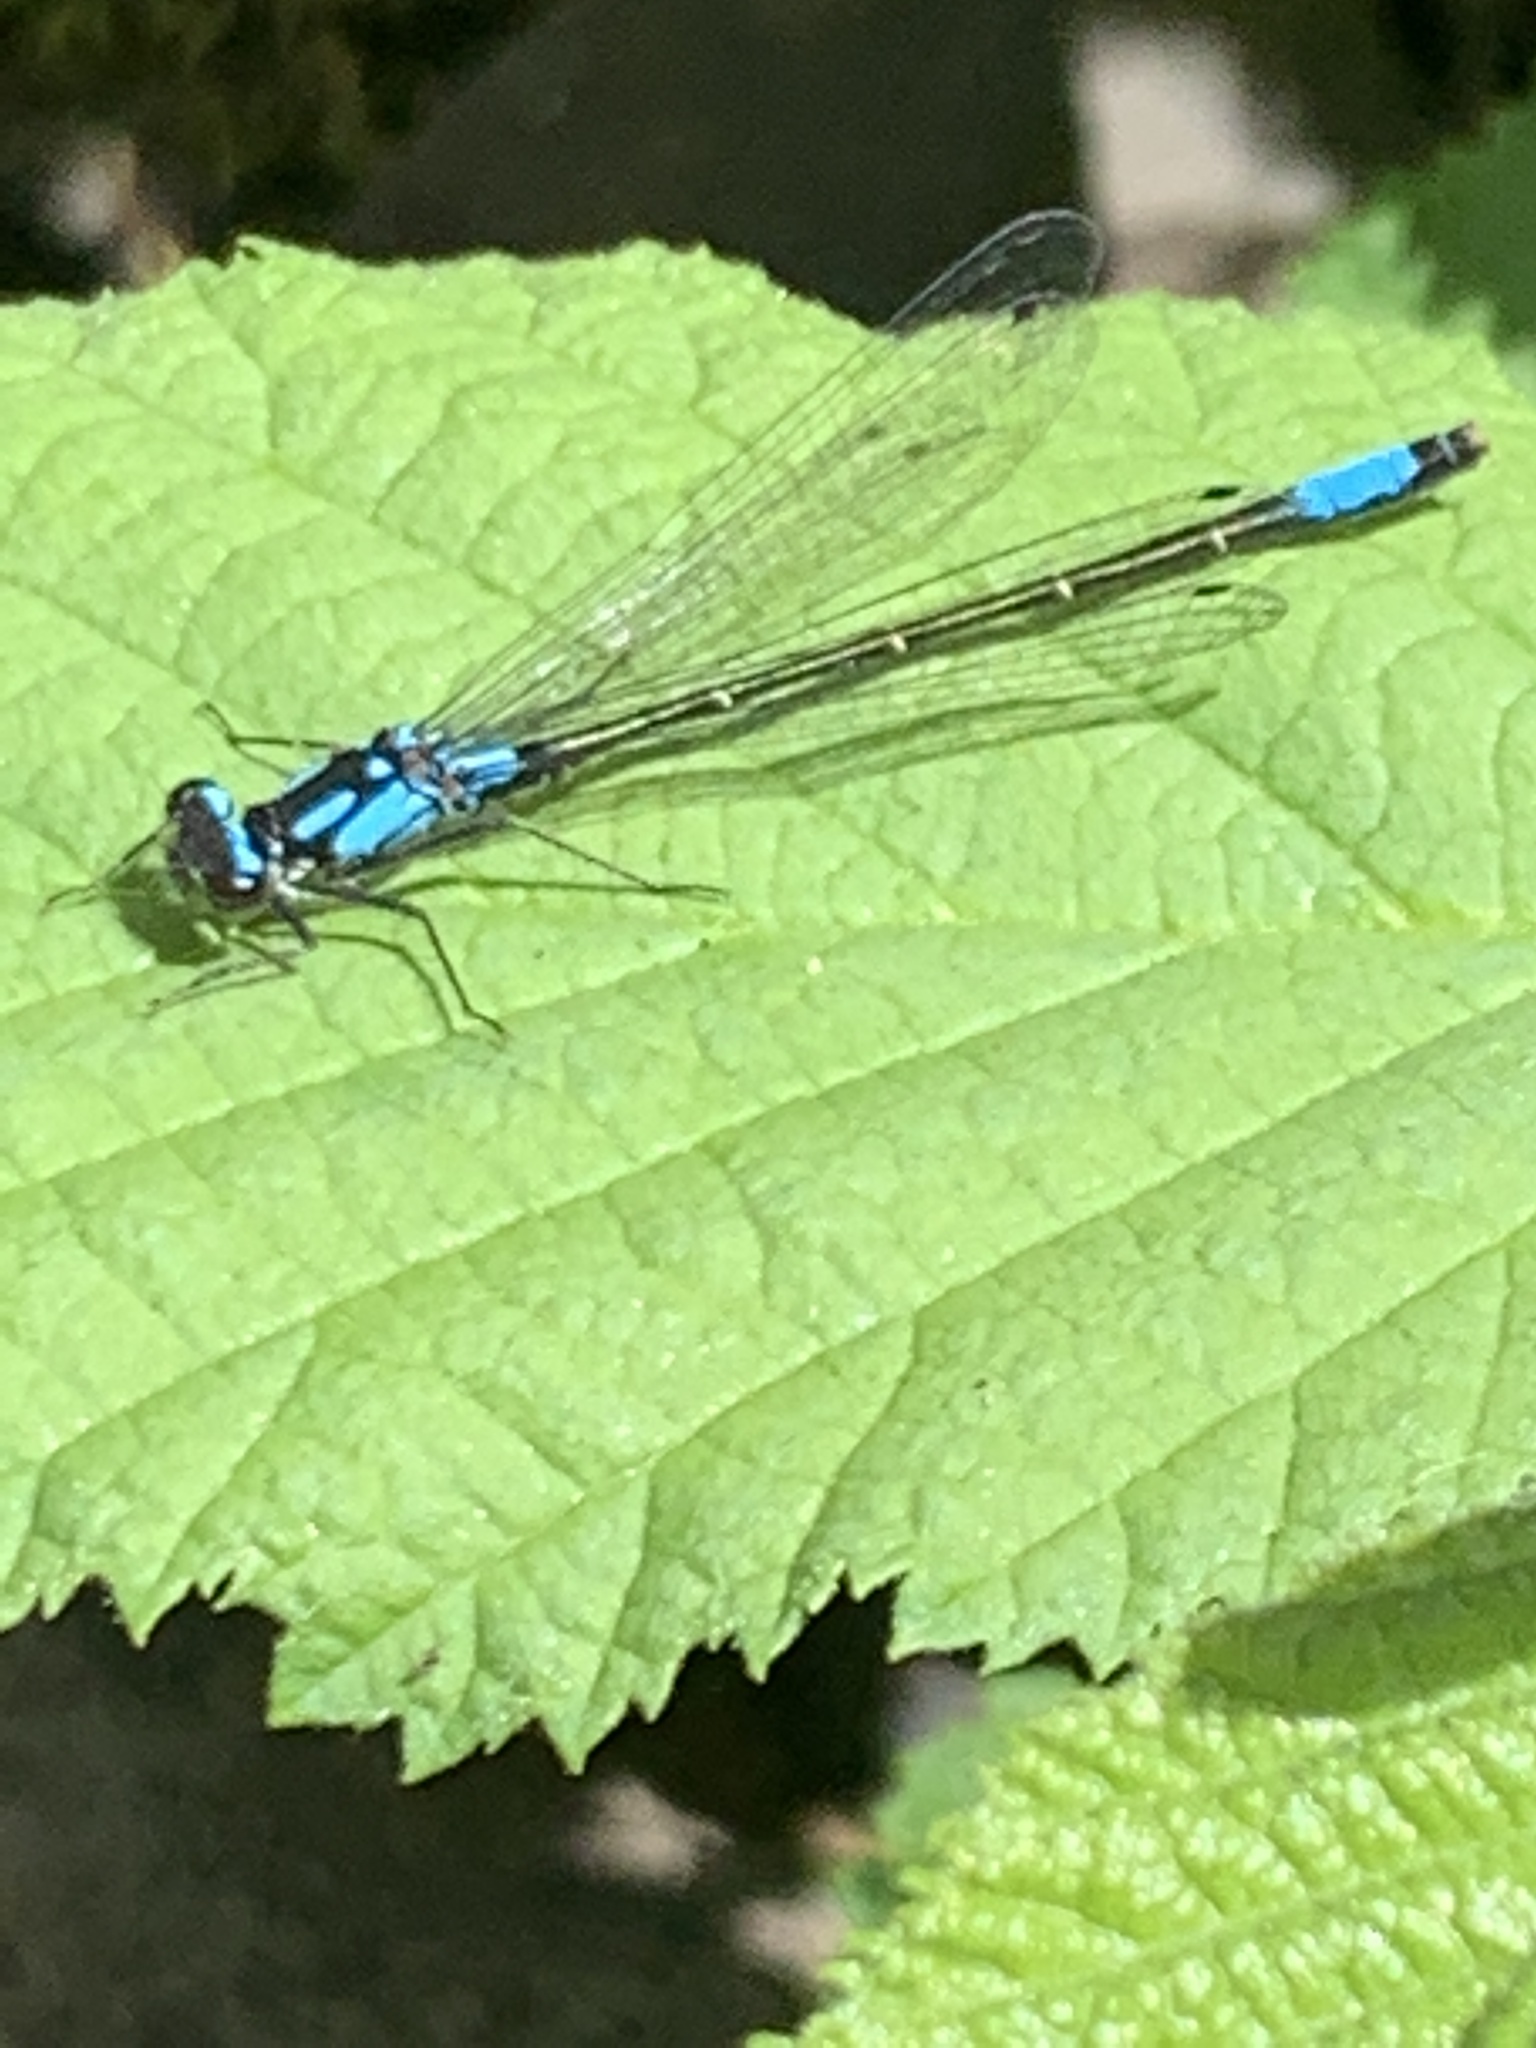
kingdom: Animalia
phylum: Arthropoda
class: Insecta
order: Odonata
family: Coenagrionidae
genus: Zoniagrion
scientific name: Zoniagrion exclamationis
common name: Exclamation damsel
